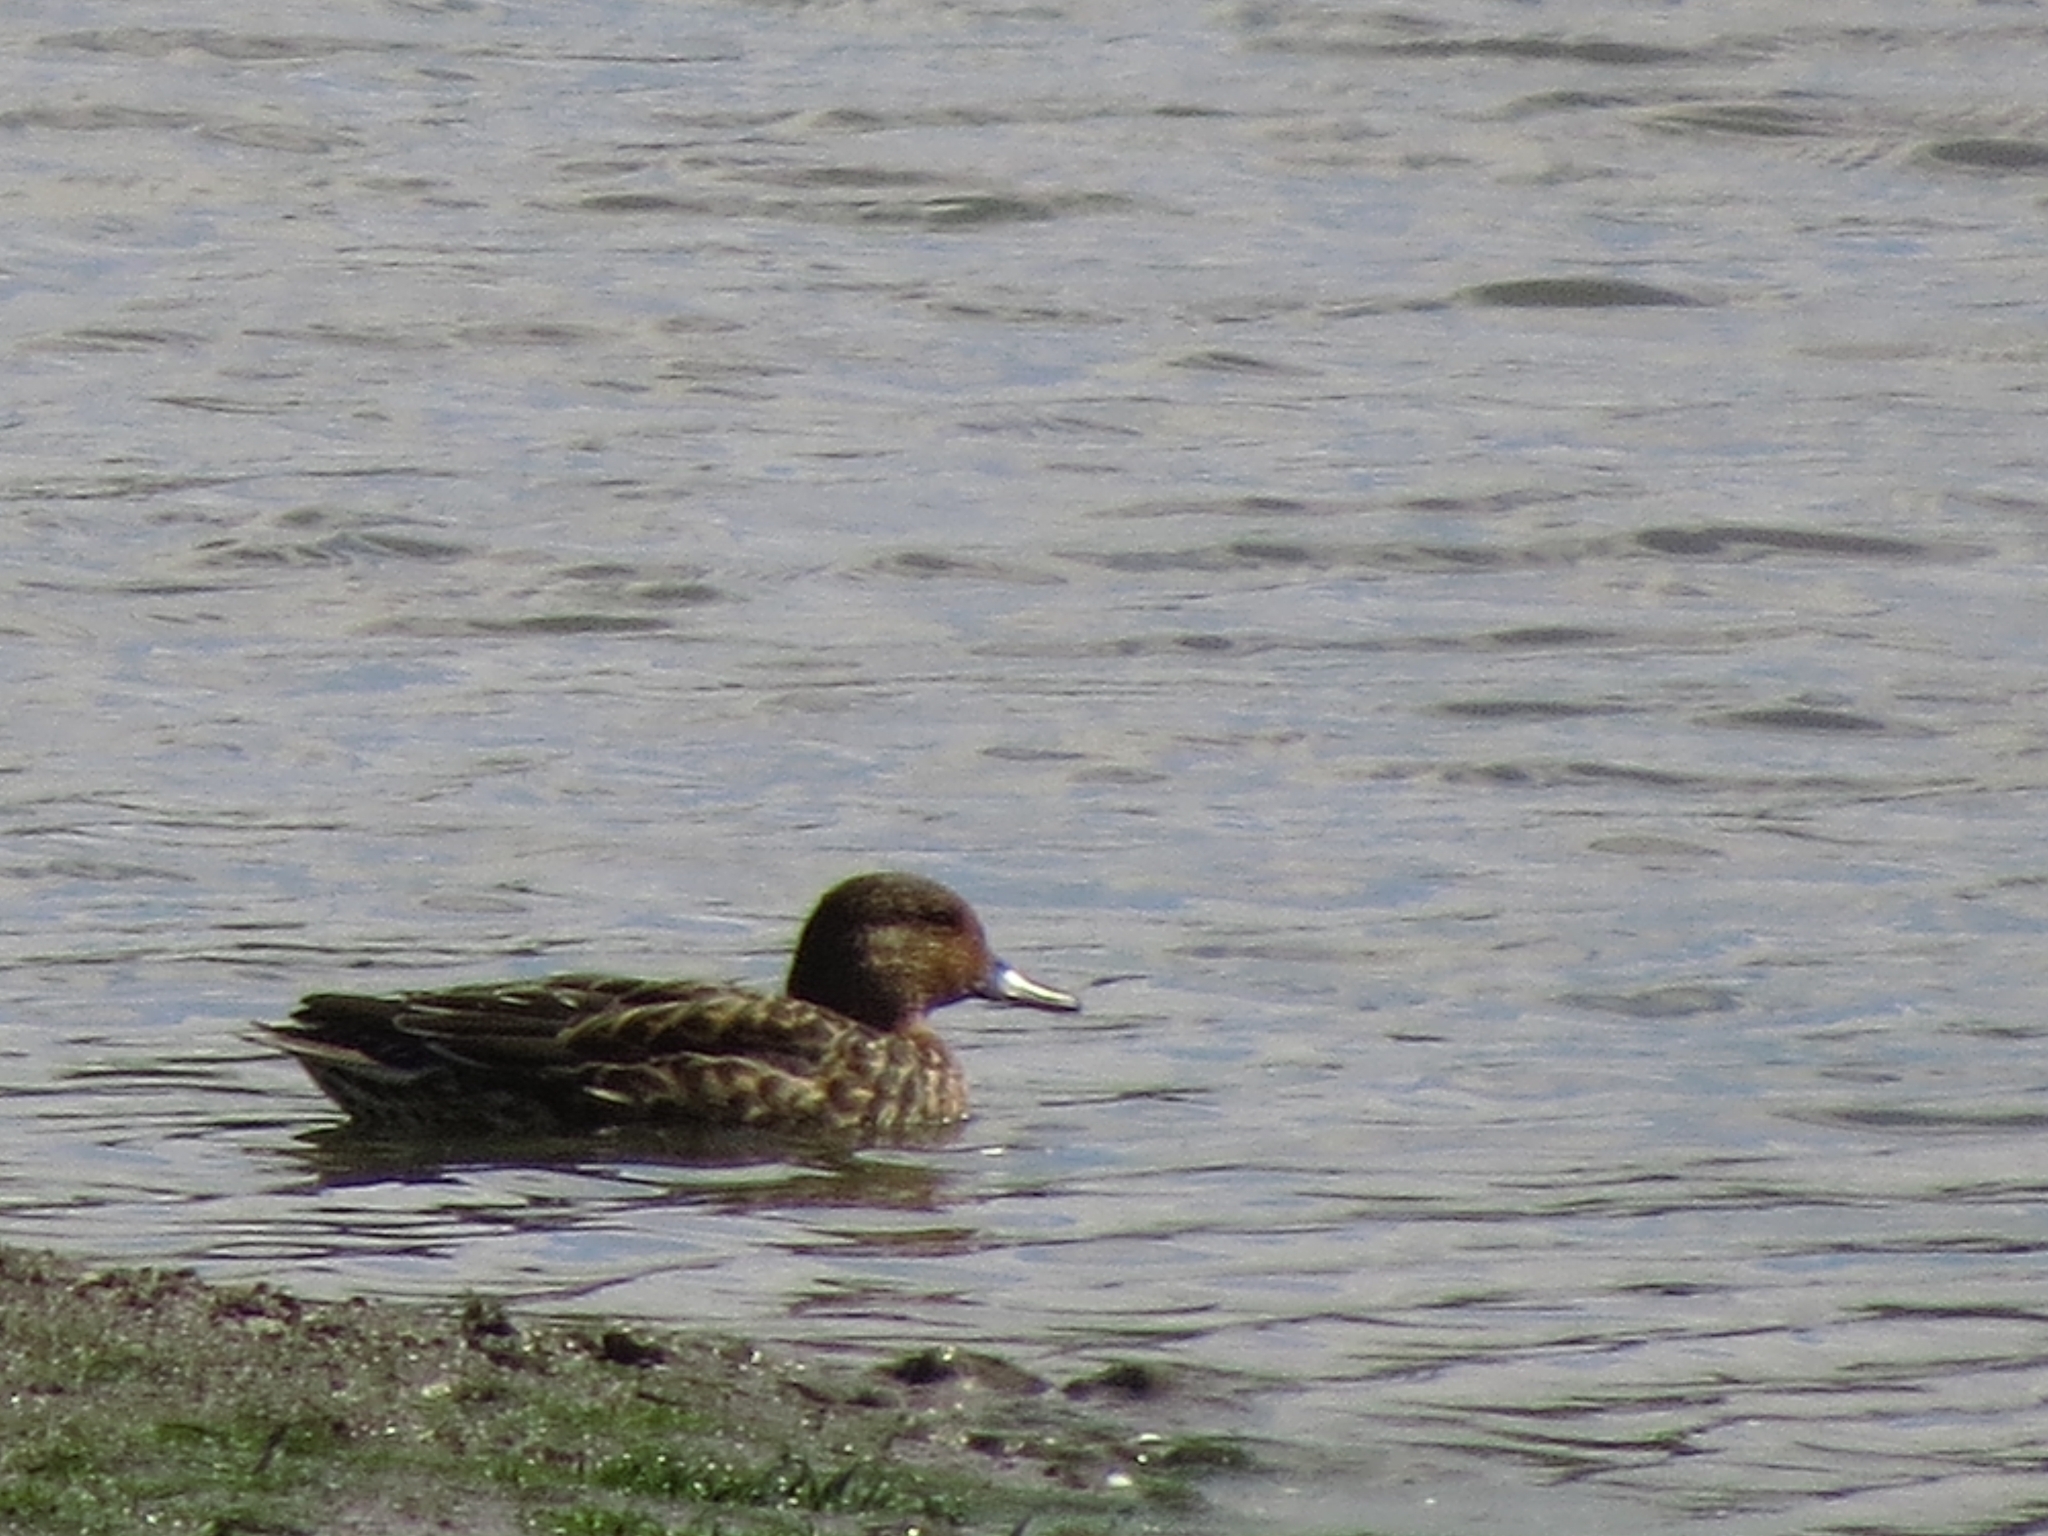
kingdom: Animalia
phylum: Chordata
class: Aves
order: Anseriformes
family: Anatidae
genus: Anas
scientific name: Anas crecca
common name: Eurasian teal
